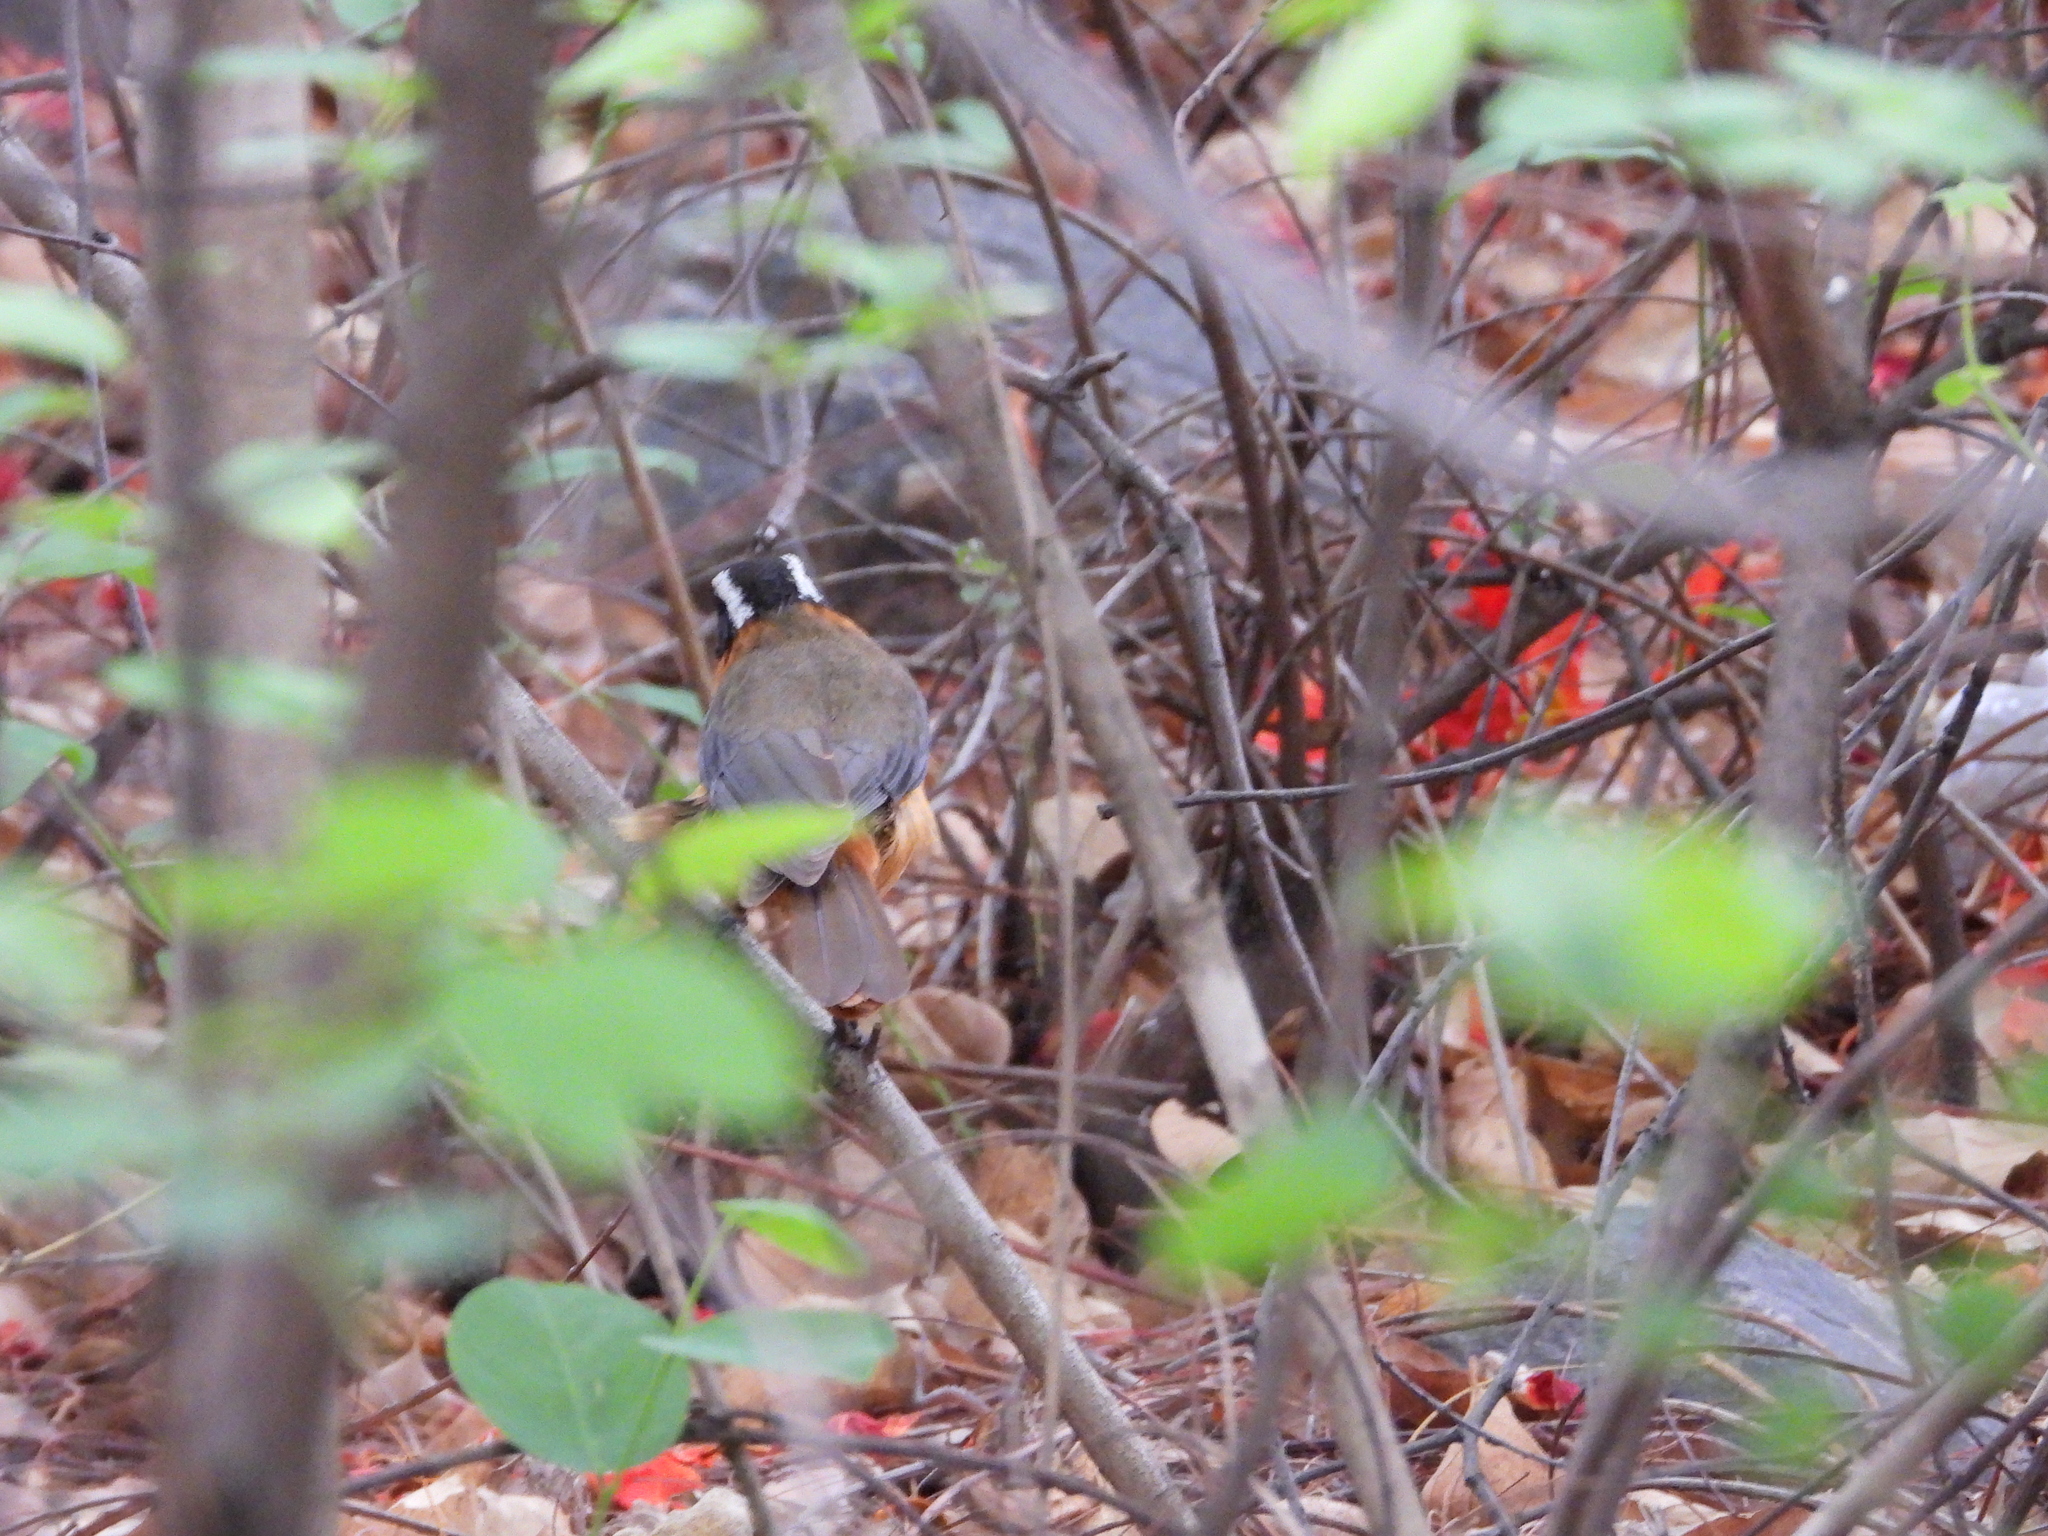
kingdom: Animalia
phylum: Chordata
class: Aves
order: Passeriformes
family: Muscicapidae
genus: Cossypha
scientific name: Cossypha heuglini
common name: White-browed robin-chat
